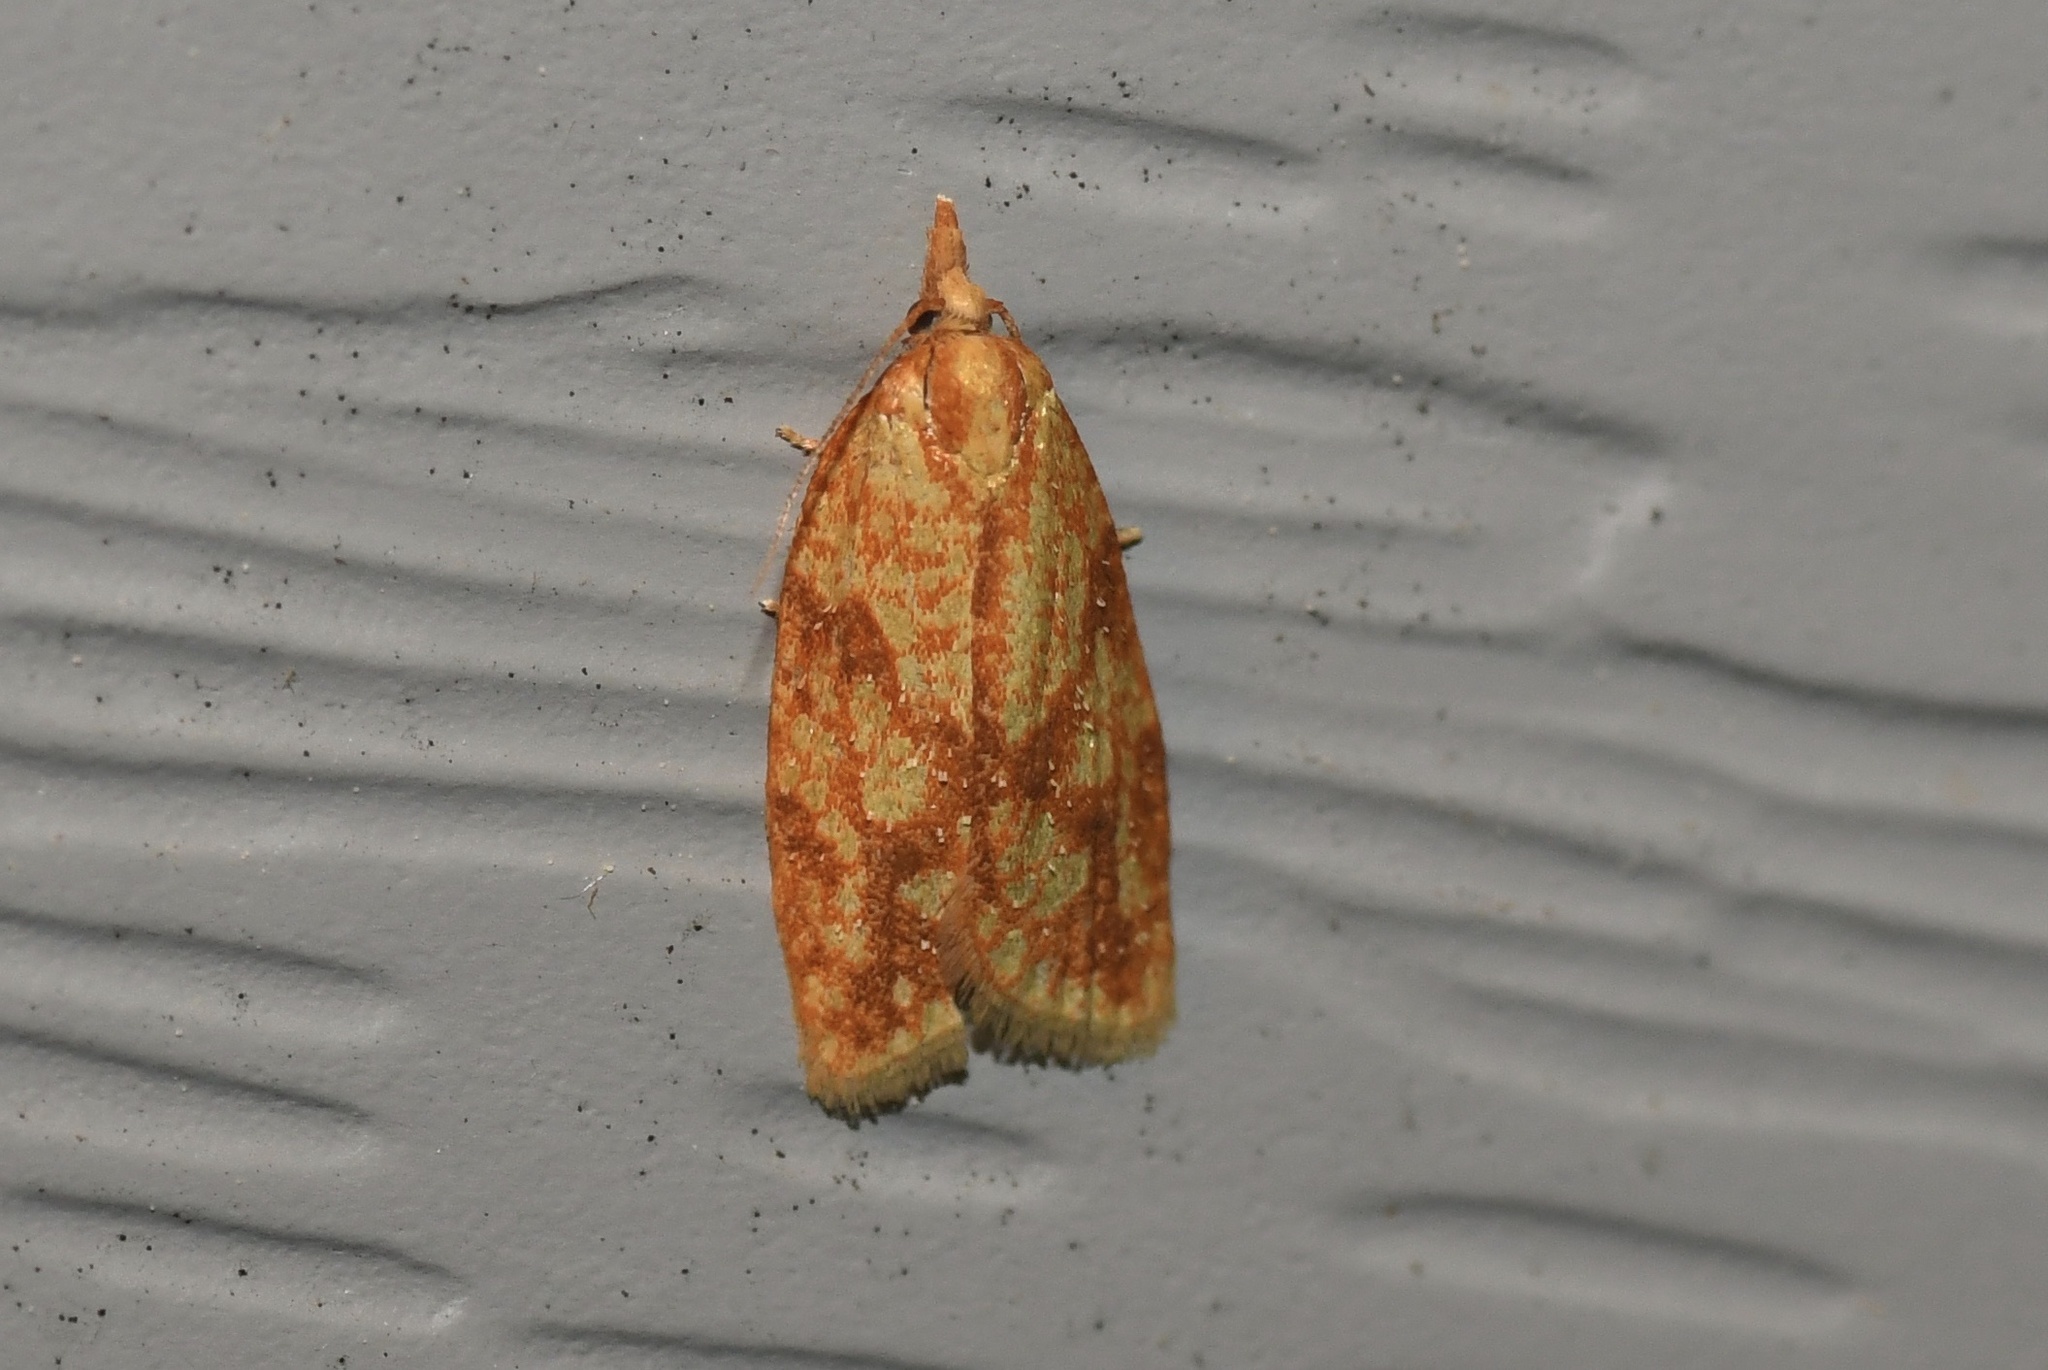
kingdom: Animalia
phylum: Arthropoda
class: Insecta
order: Lepidoptera
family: Tortricidae
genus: Sparganothis
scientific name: Sparganothis sulfureana
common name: Sparganothis fruitworm moth
